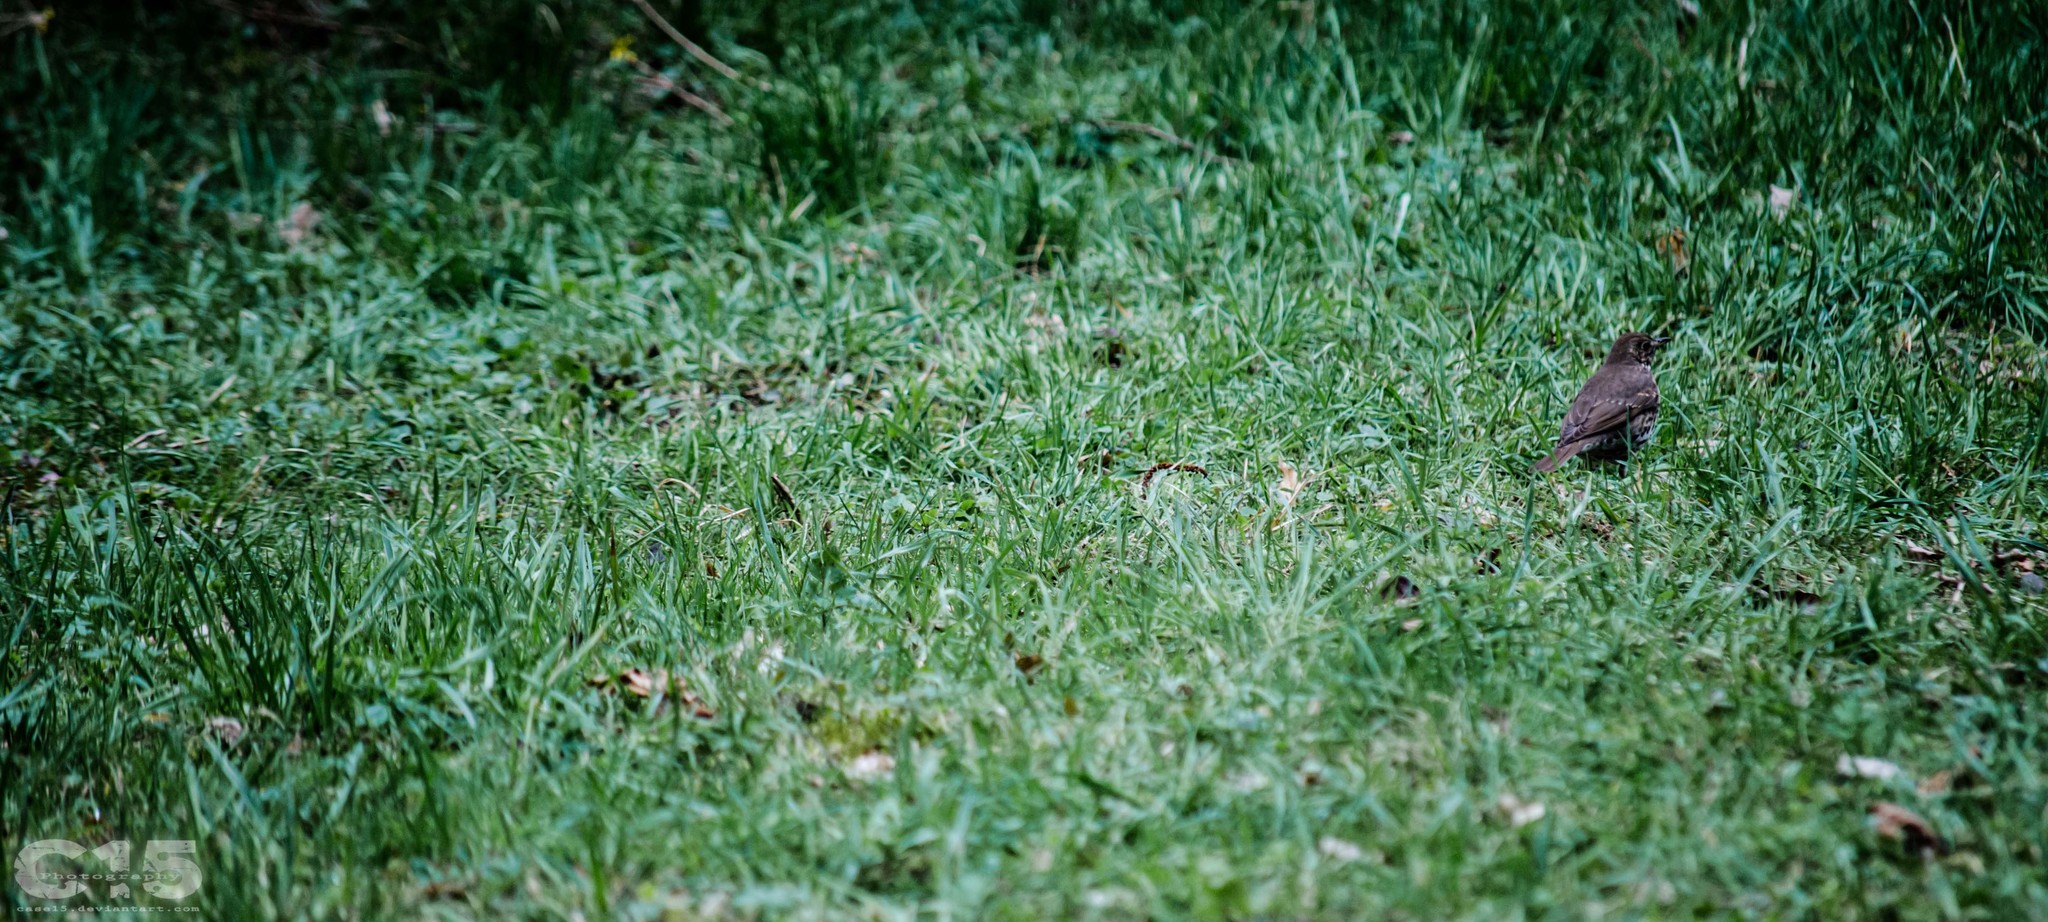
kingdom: Animalia
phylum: Chordata
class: Aves
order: Passeriformes
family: Turdidae
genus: Turdus
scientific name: Turdus philomelos
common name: Song thrush
